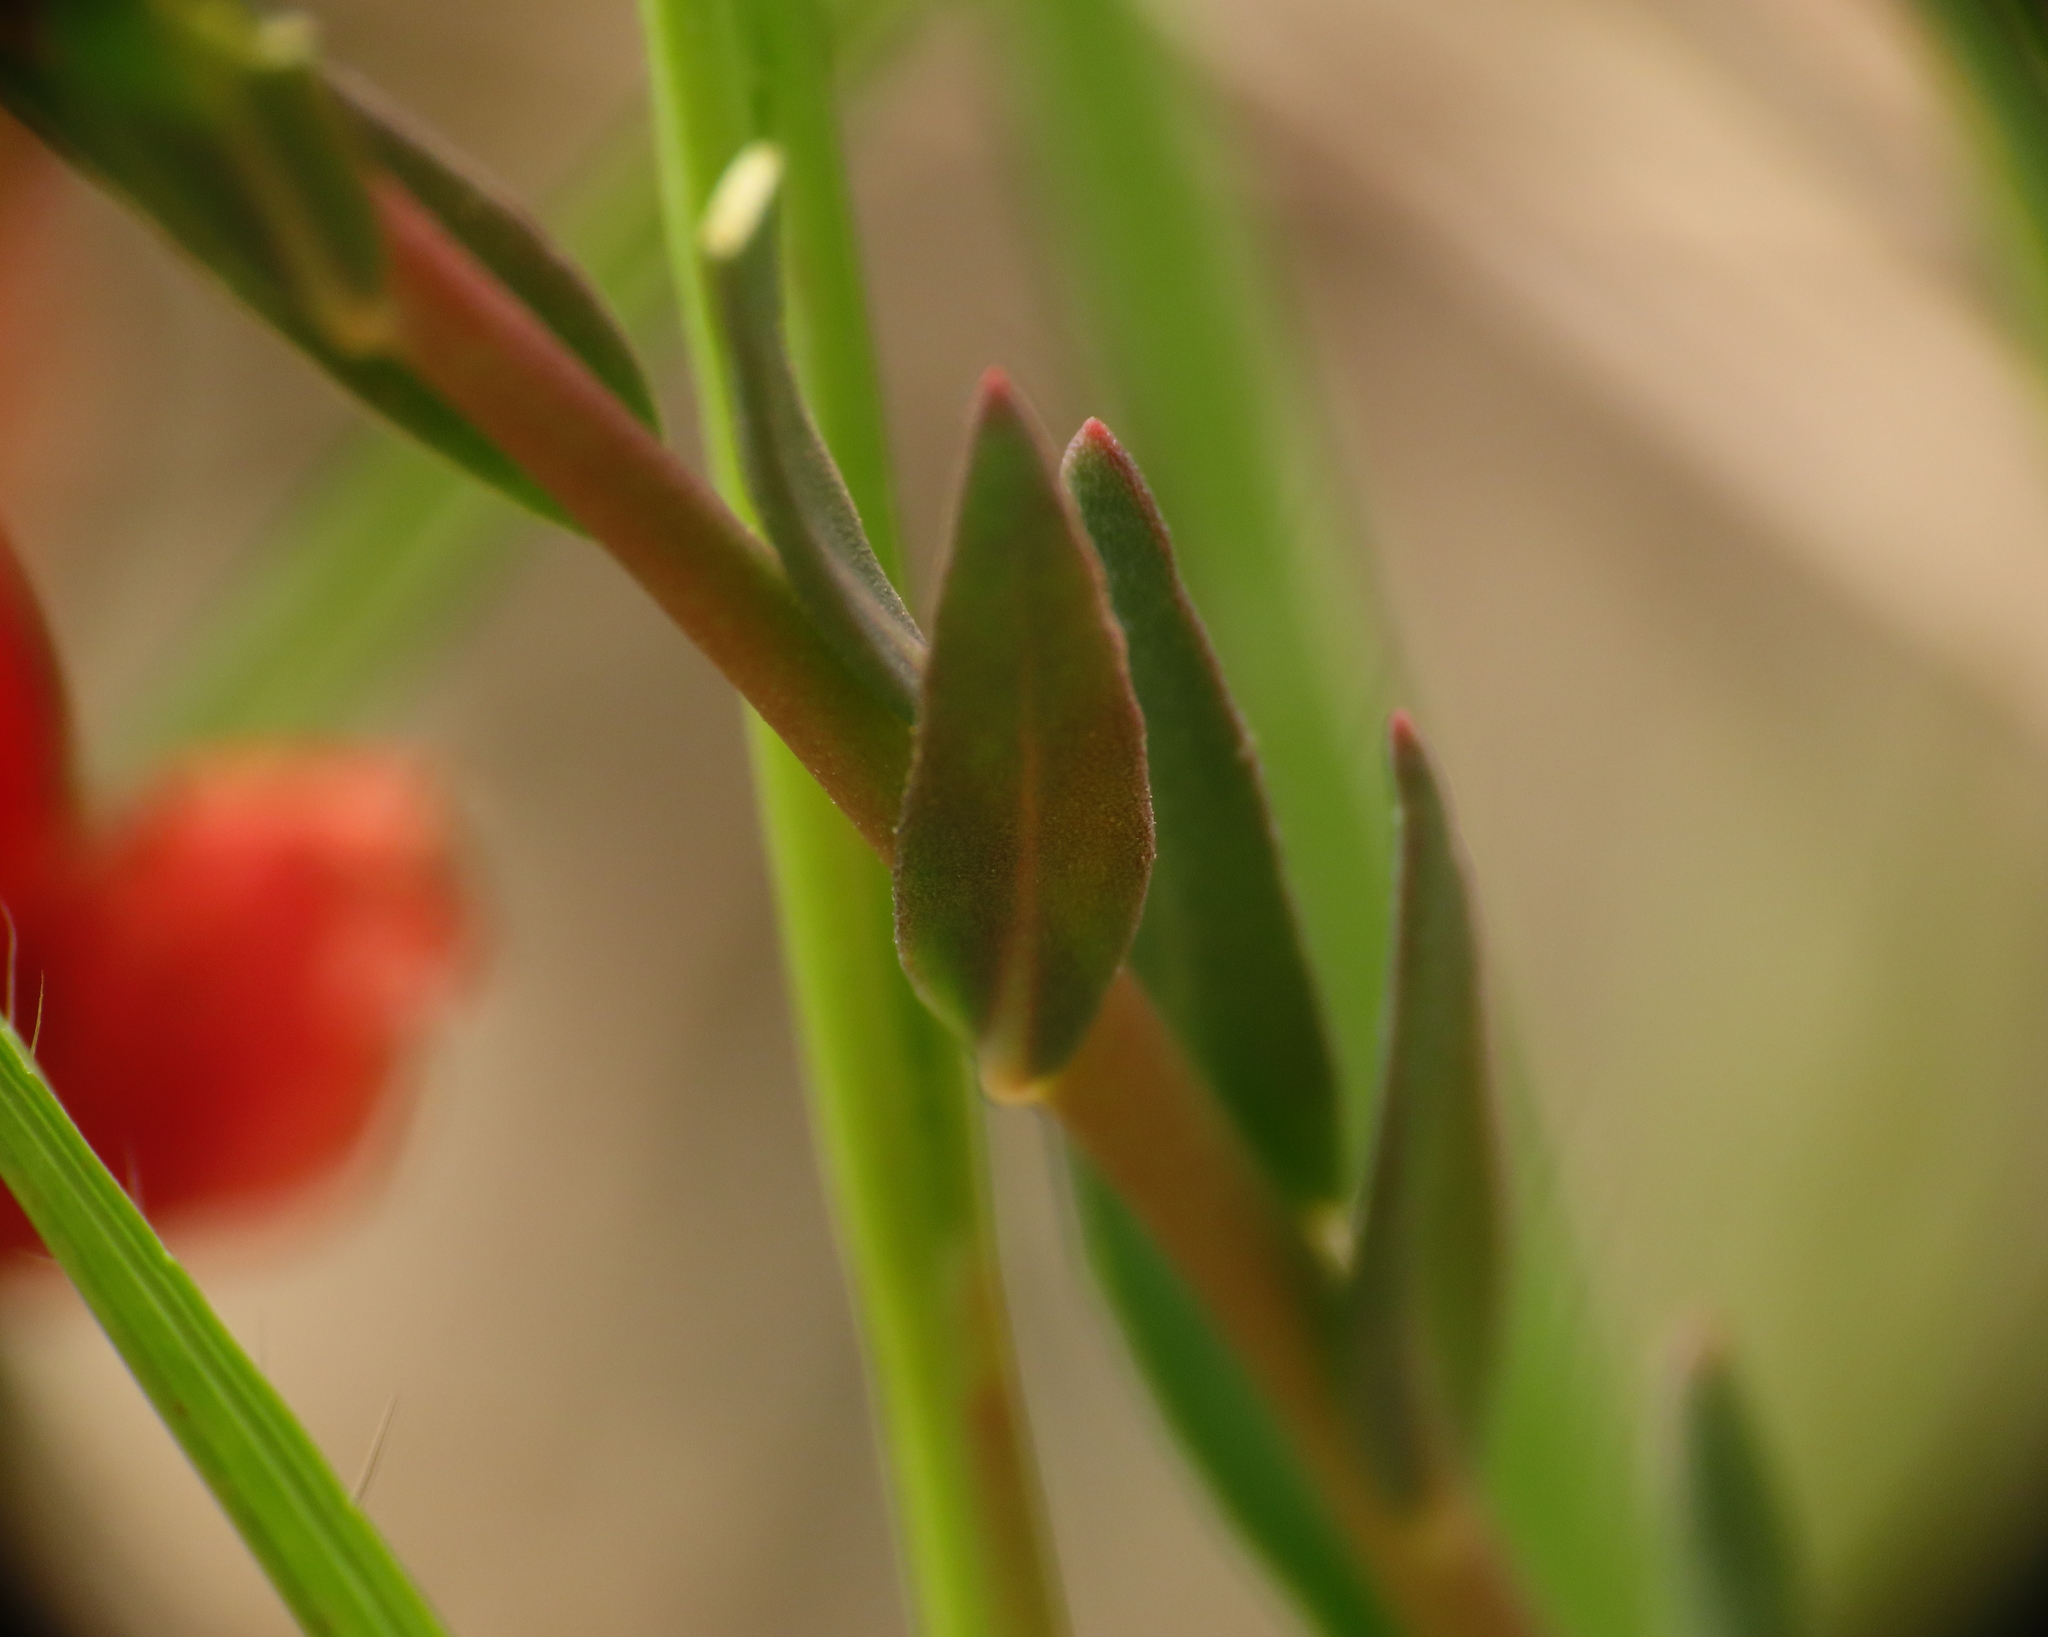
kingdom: Plantae
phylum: Tracheophyta
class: Magnoliopsida
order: Brassicales
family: Brassicaceae
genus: Aethionema
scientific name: Aethionema saxatile
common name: Burnt candytuft
